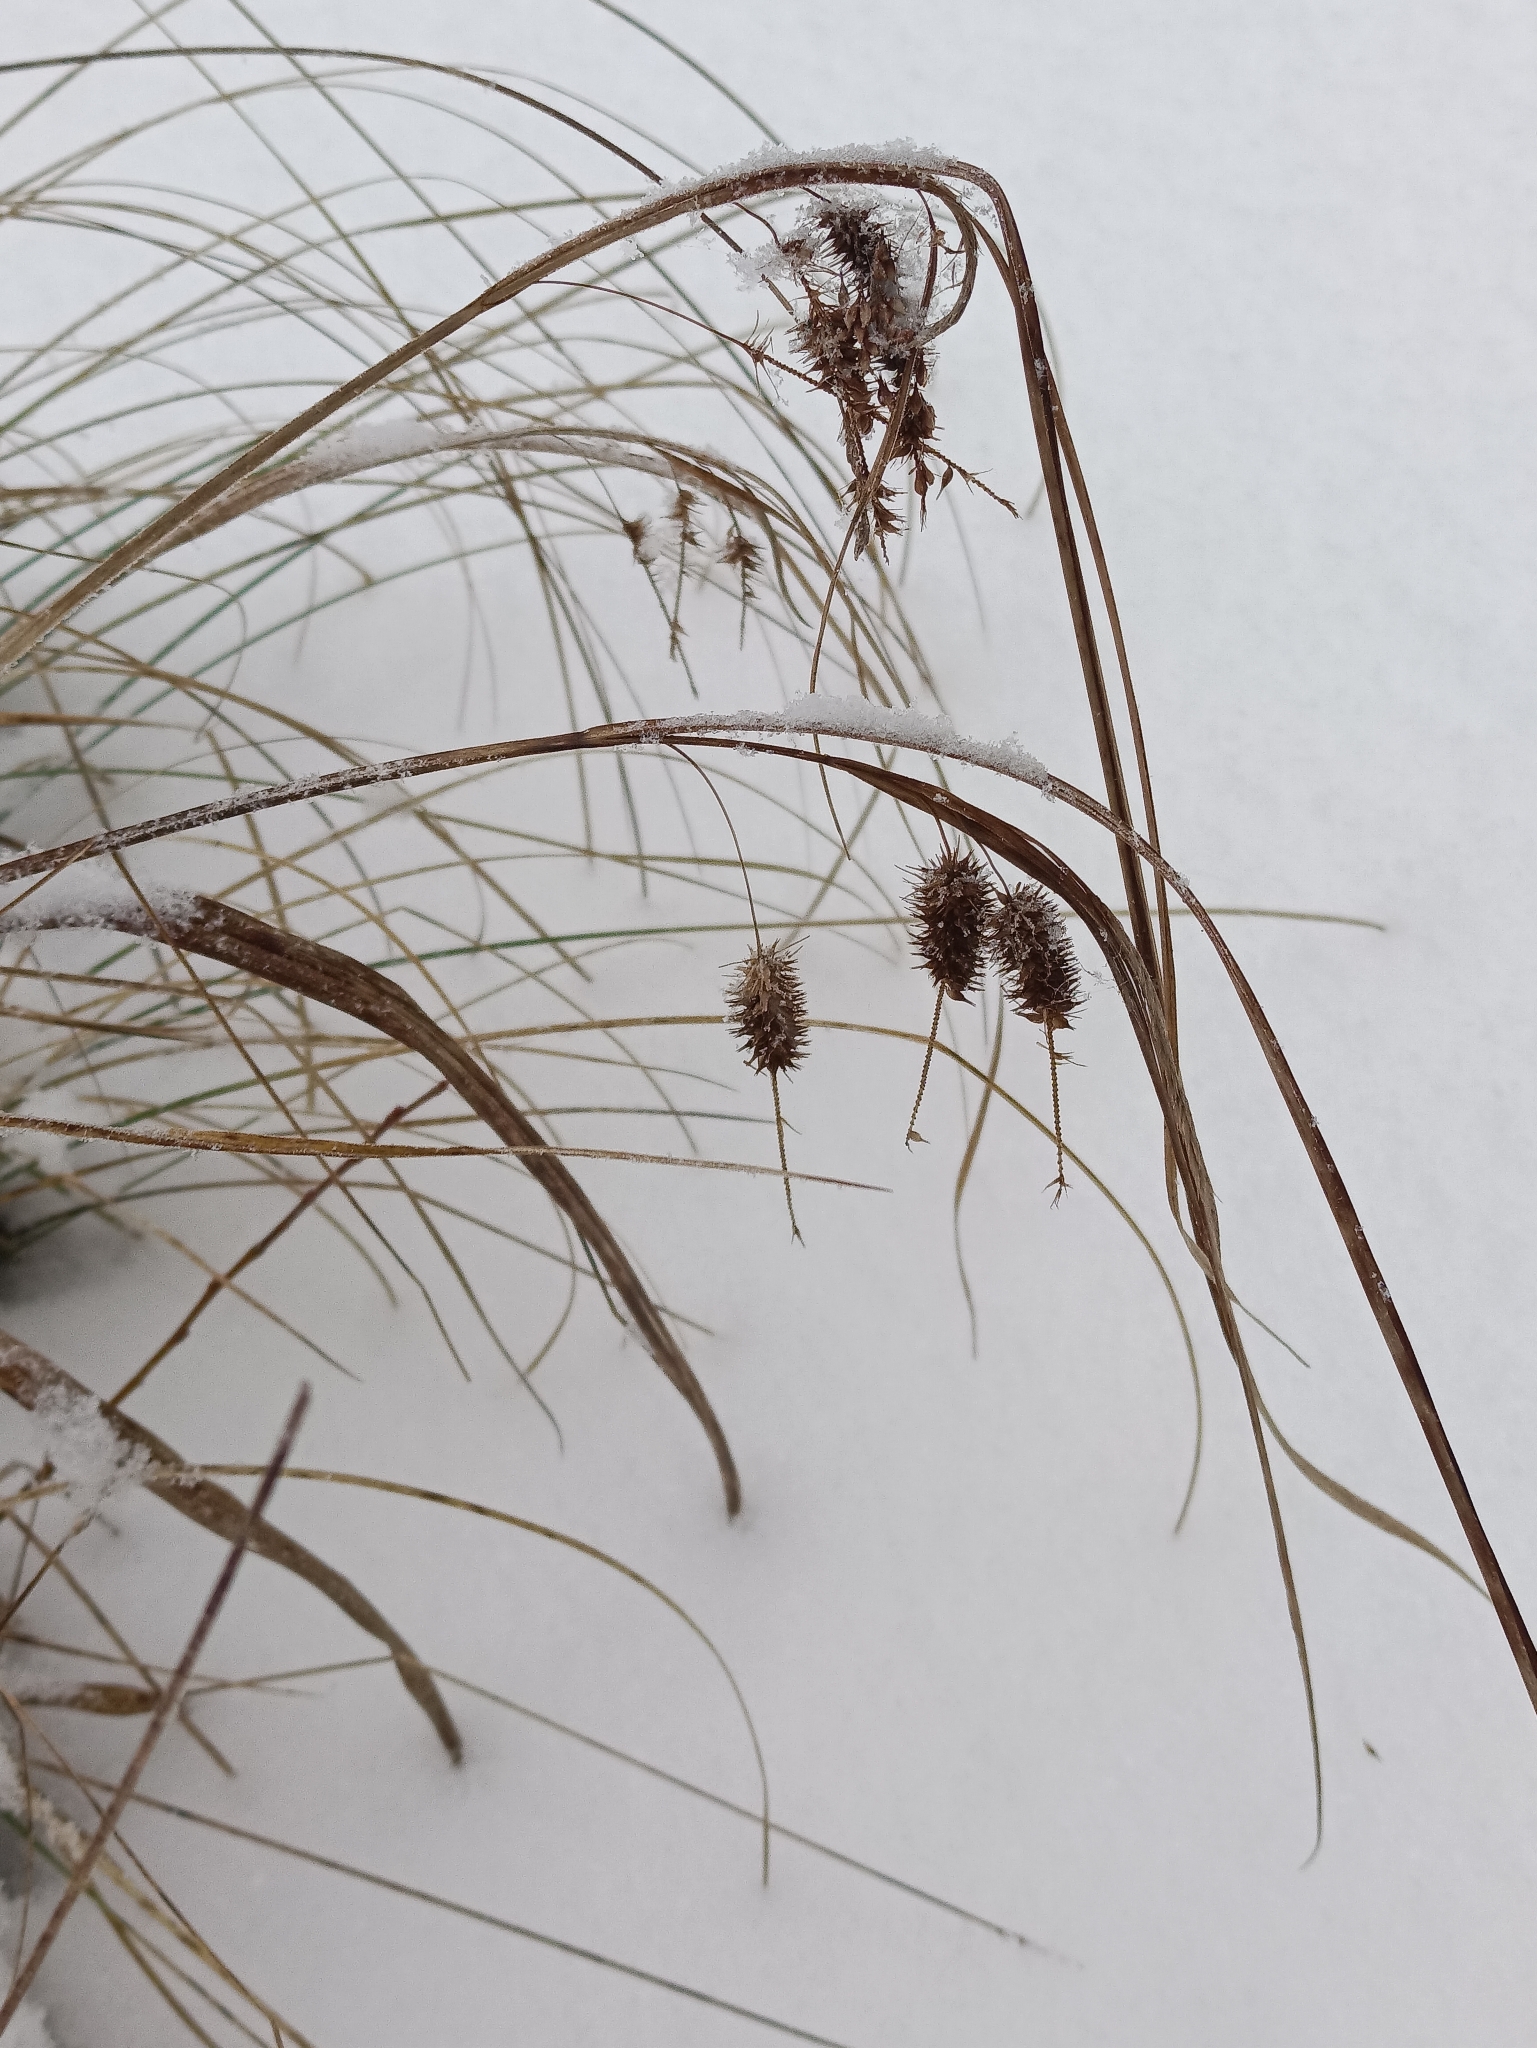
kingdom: Plantae
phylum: Tracheophyta
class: Liliopsida
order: Poales
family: Cyperaceae
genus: Carex
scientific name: Carex pseudocyperus
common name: Cyperus sedge
